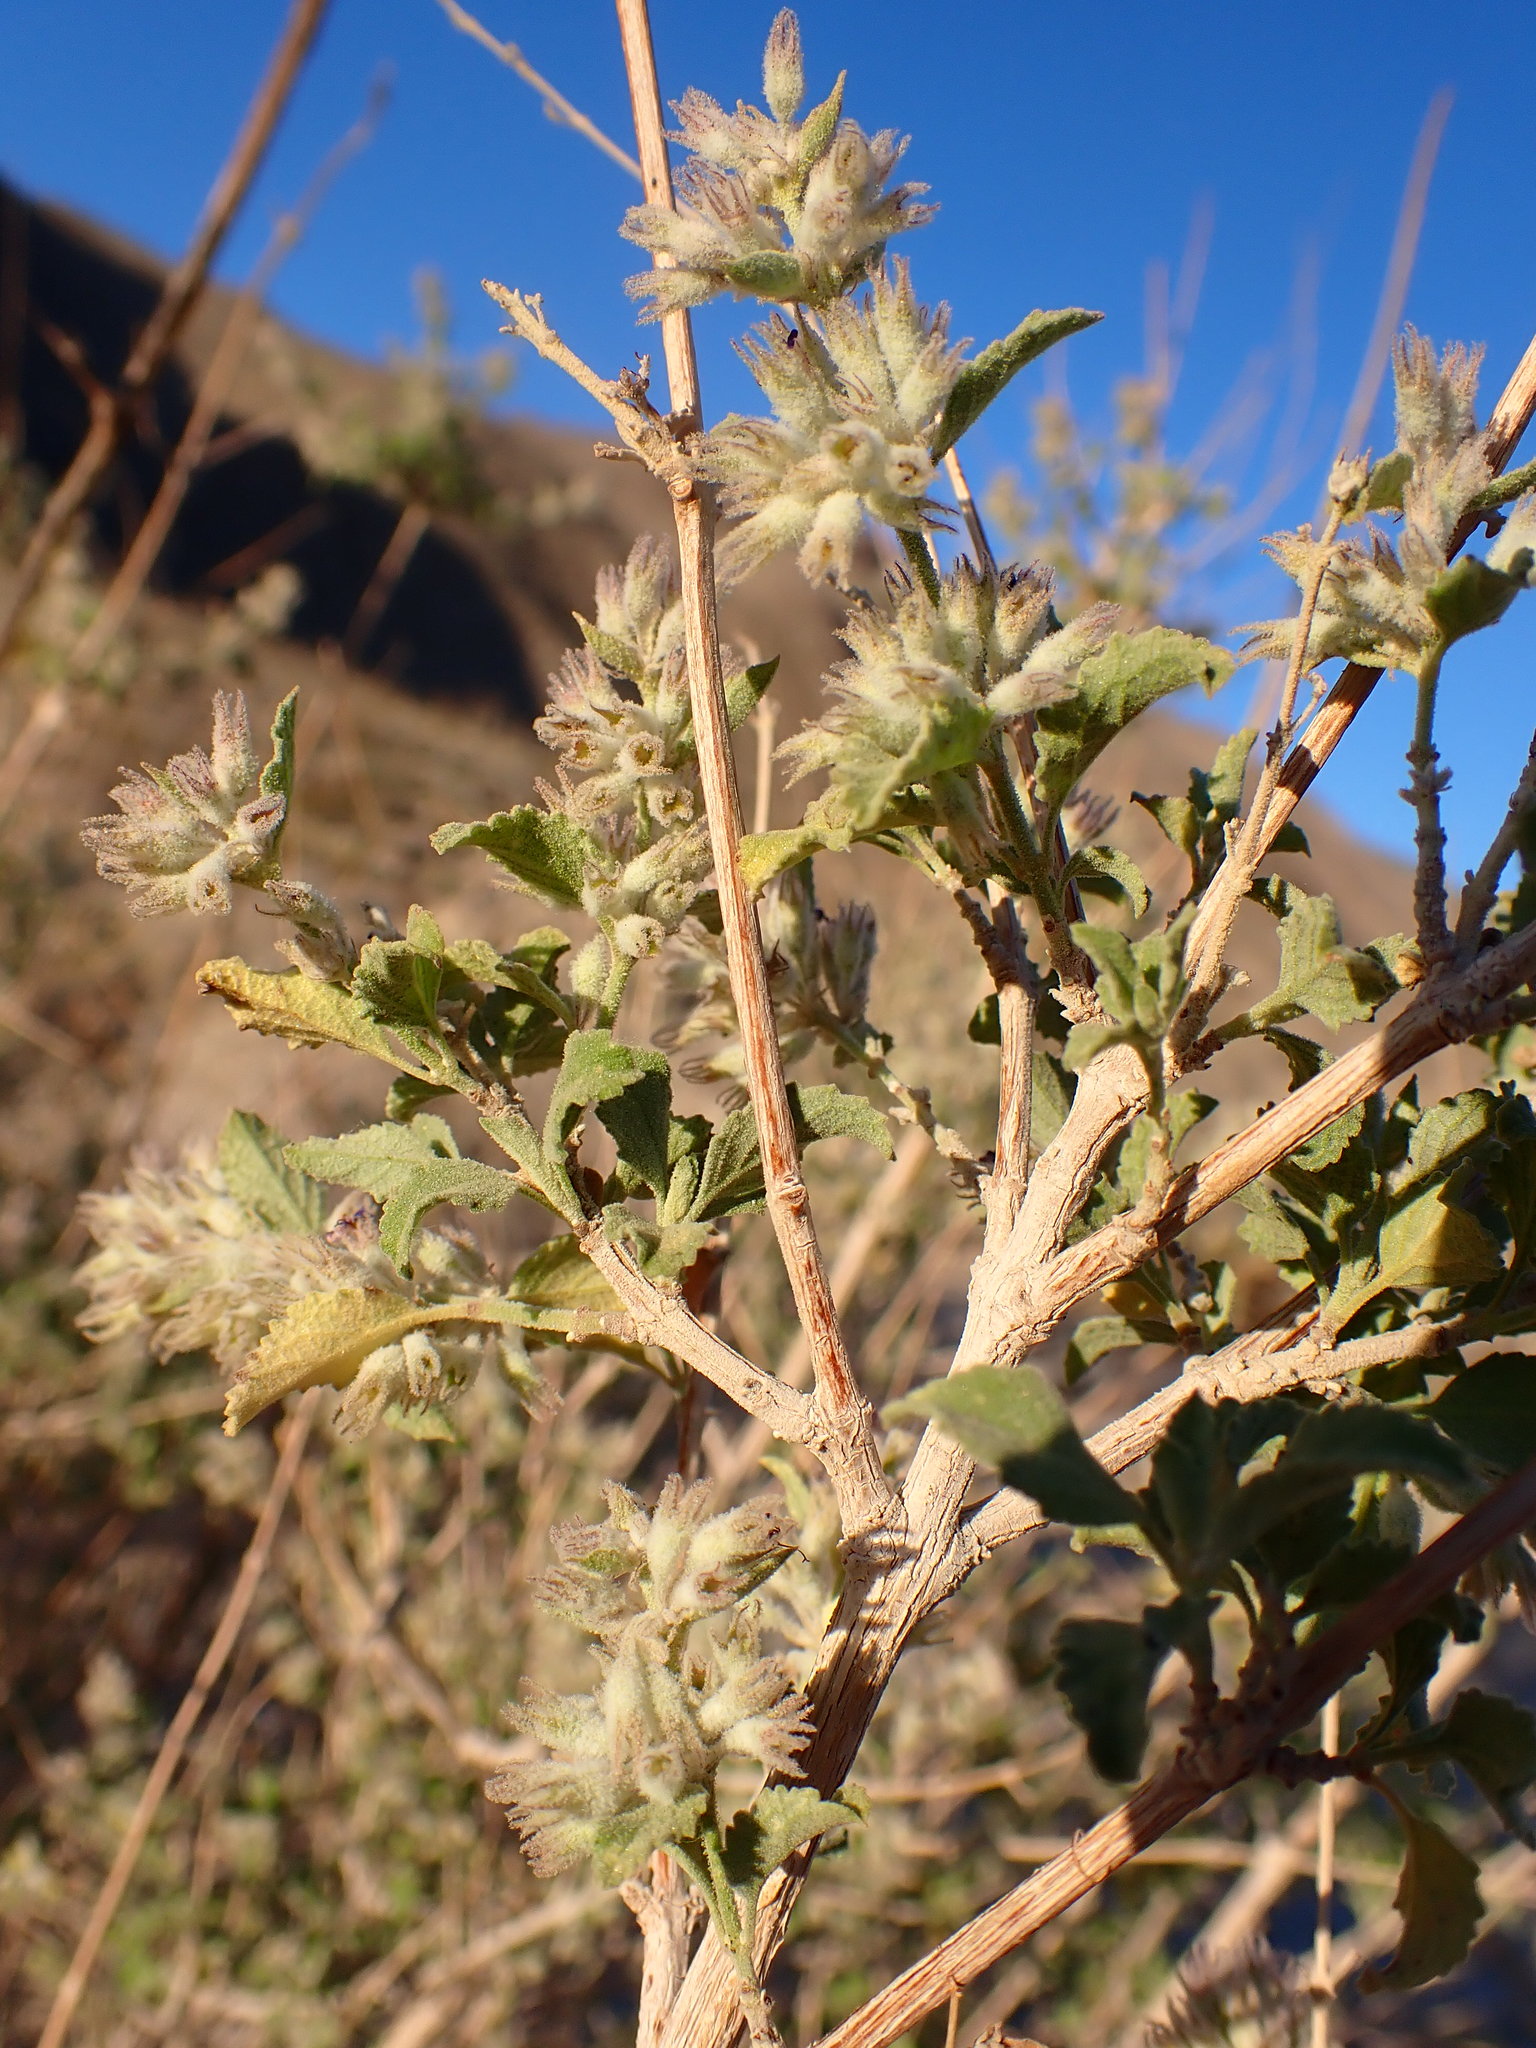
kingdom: Plantae
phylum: Tracheophyta
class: Magnoliopsida
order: Lamiales
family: Lamiaceae
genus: Condea
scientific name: Condea emoryi
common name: Chia
